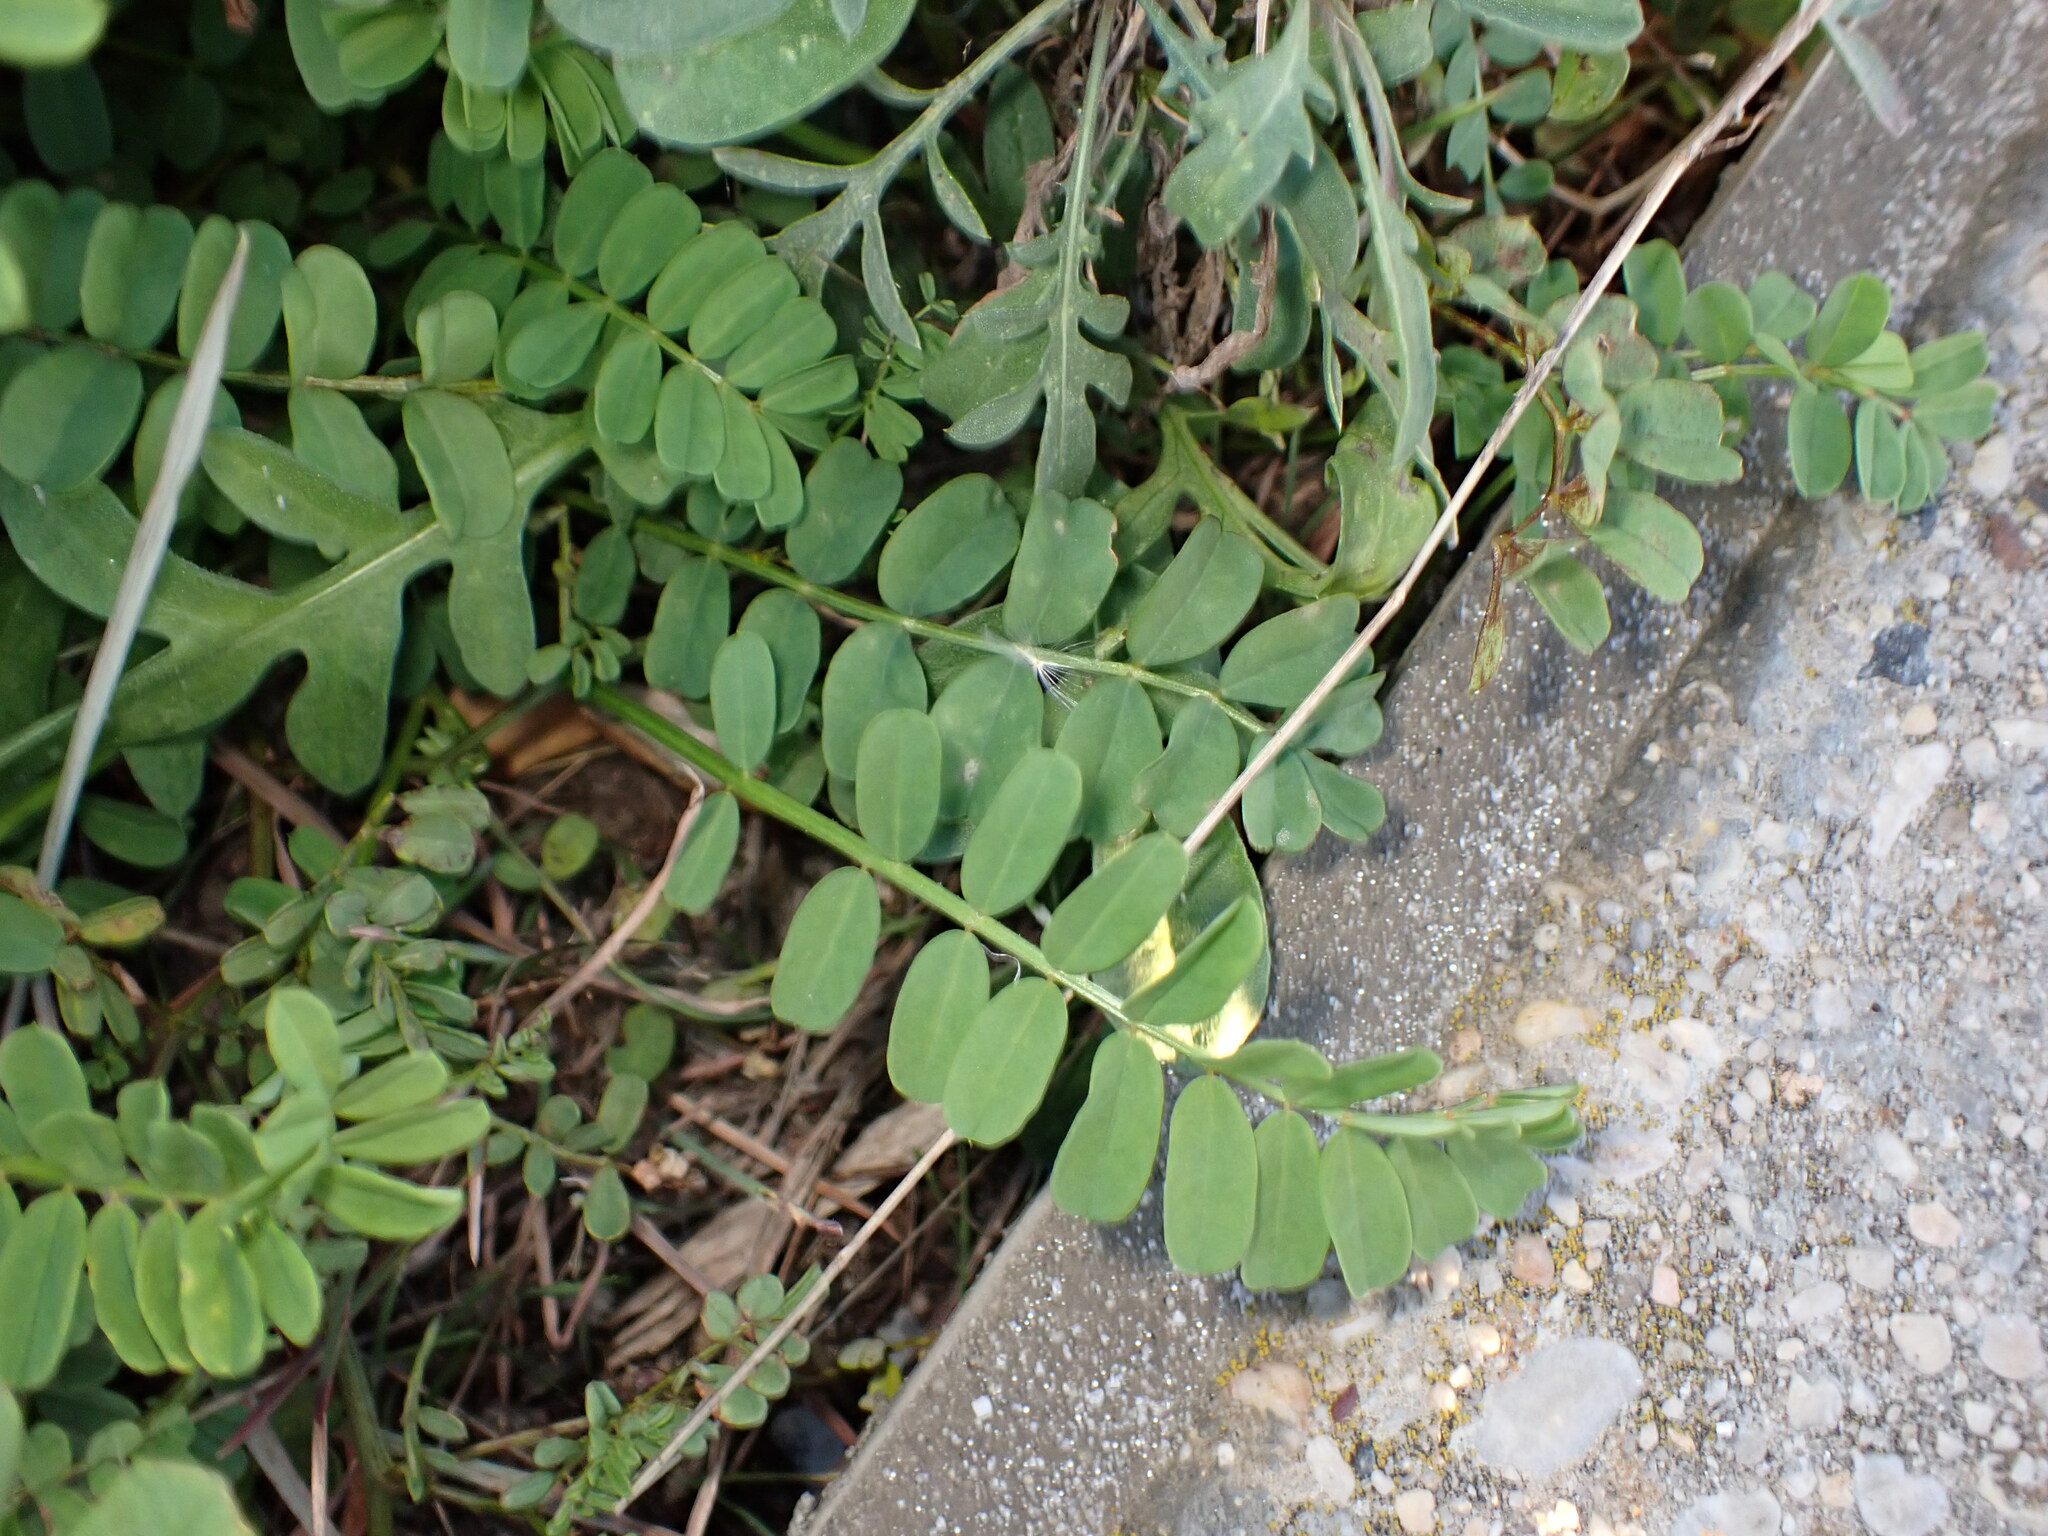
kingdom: Plantae
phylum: Tracheophyta
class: Magnoliopsida
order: Fabales
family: Fabaceae
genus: Coronilla
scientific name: Coronilla varia
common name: Crownvetch
